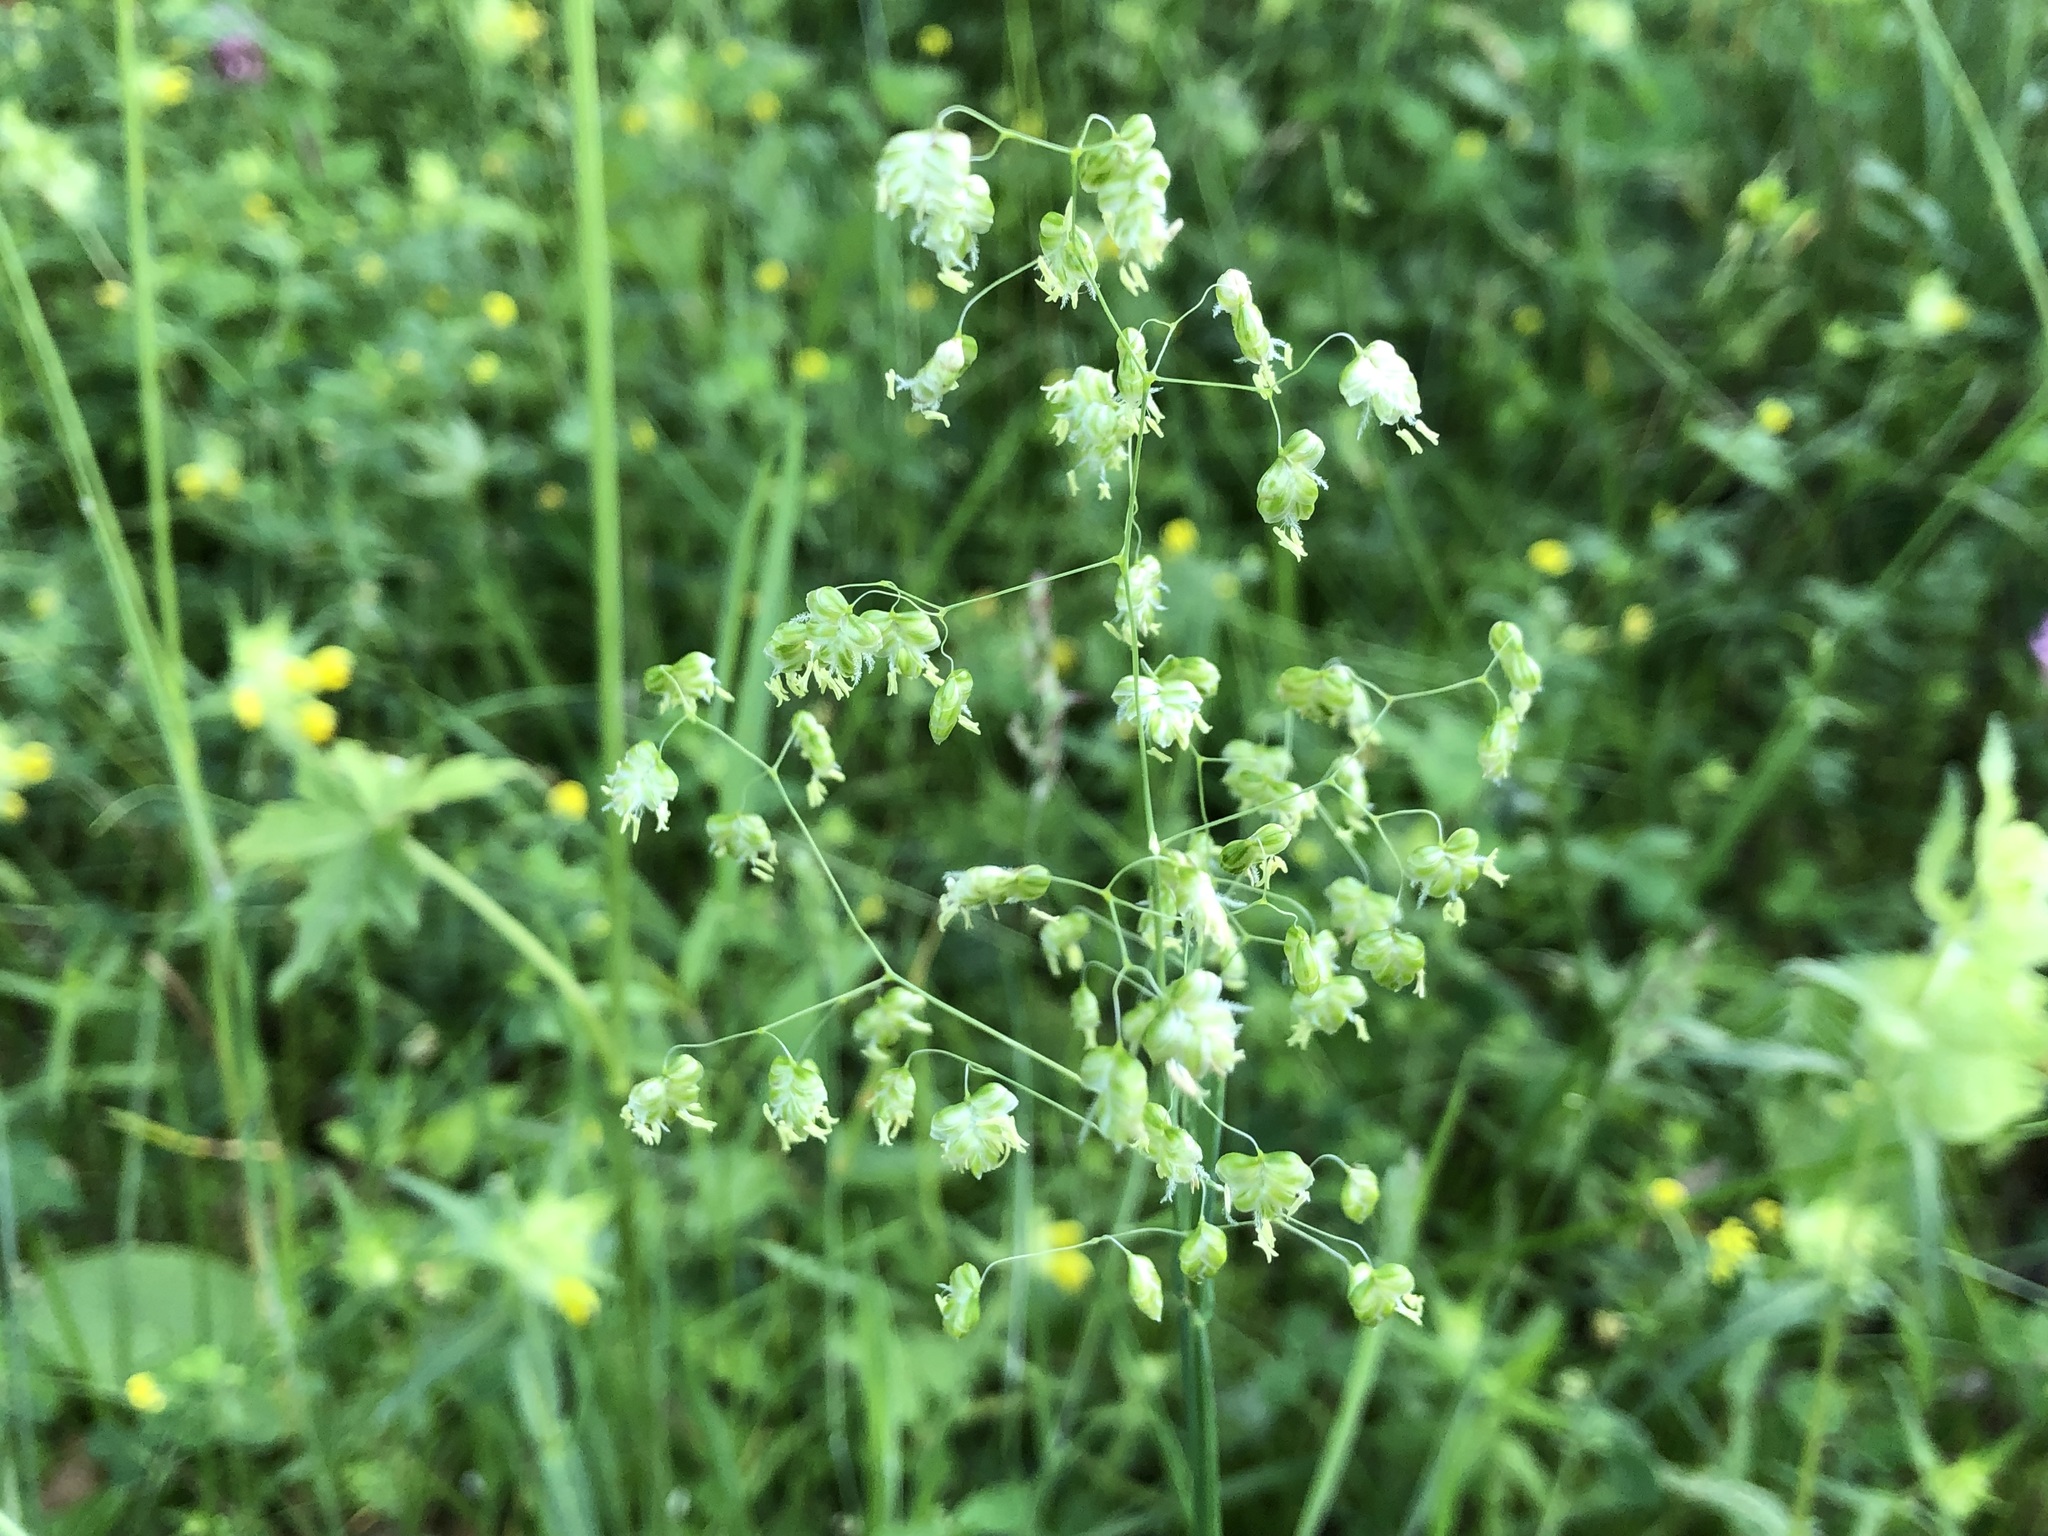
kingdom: Plantae
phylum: Tracheophyta
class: Liliopsida
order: Poales
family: Poaceae
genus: Briza
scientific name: Briza media
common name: Quaking grass
